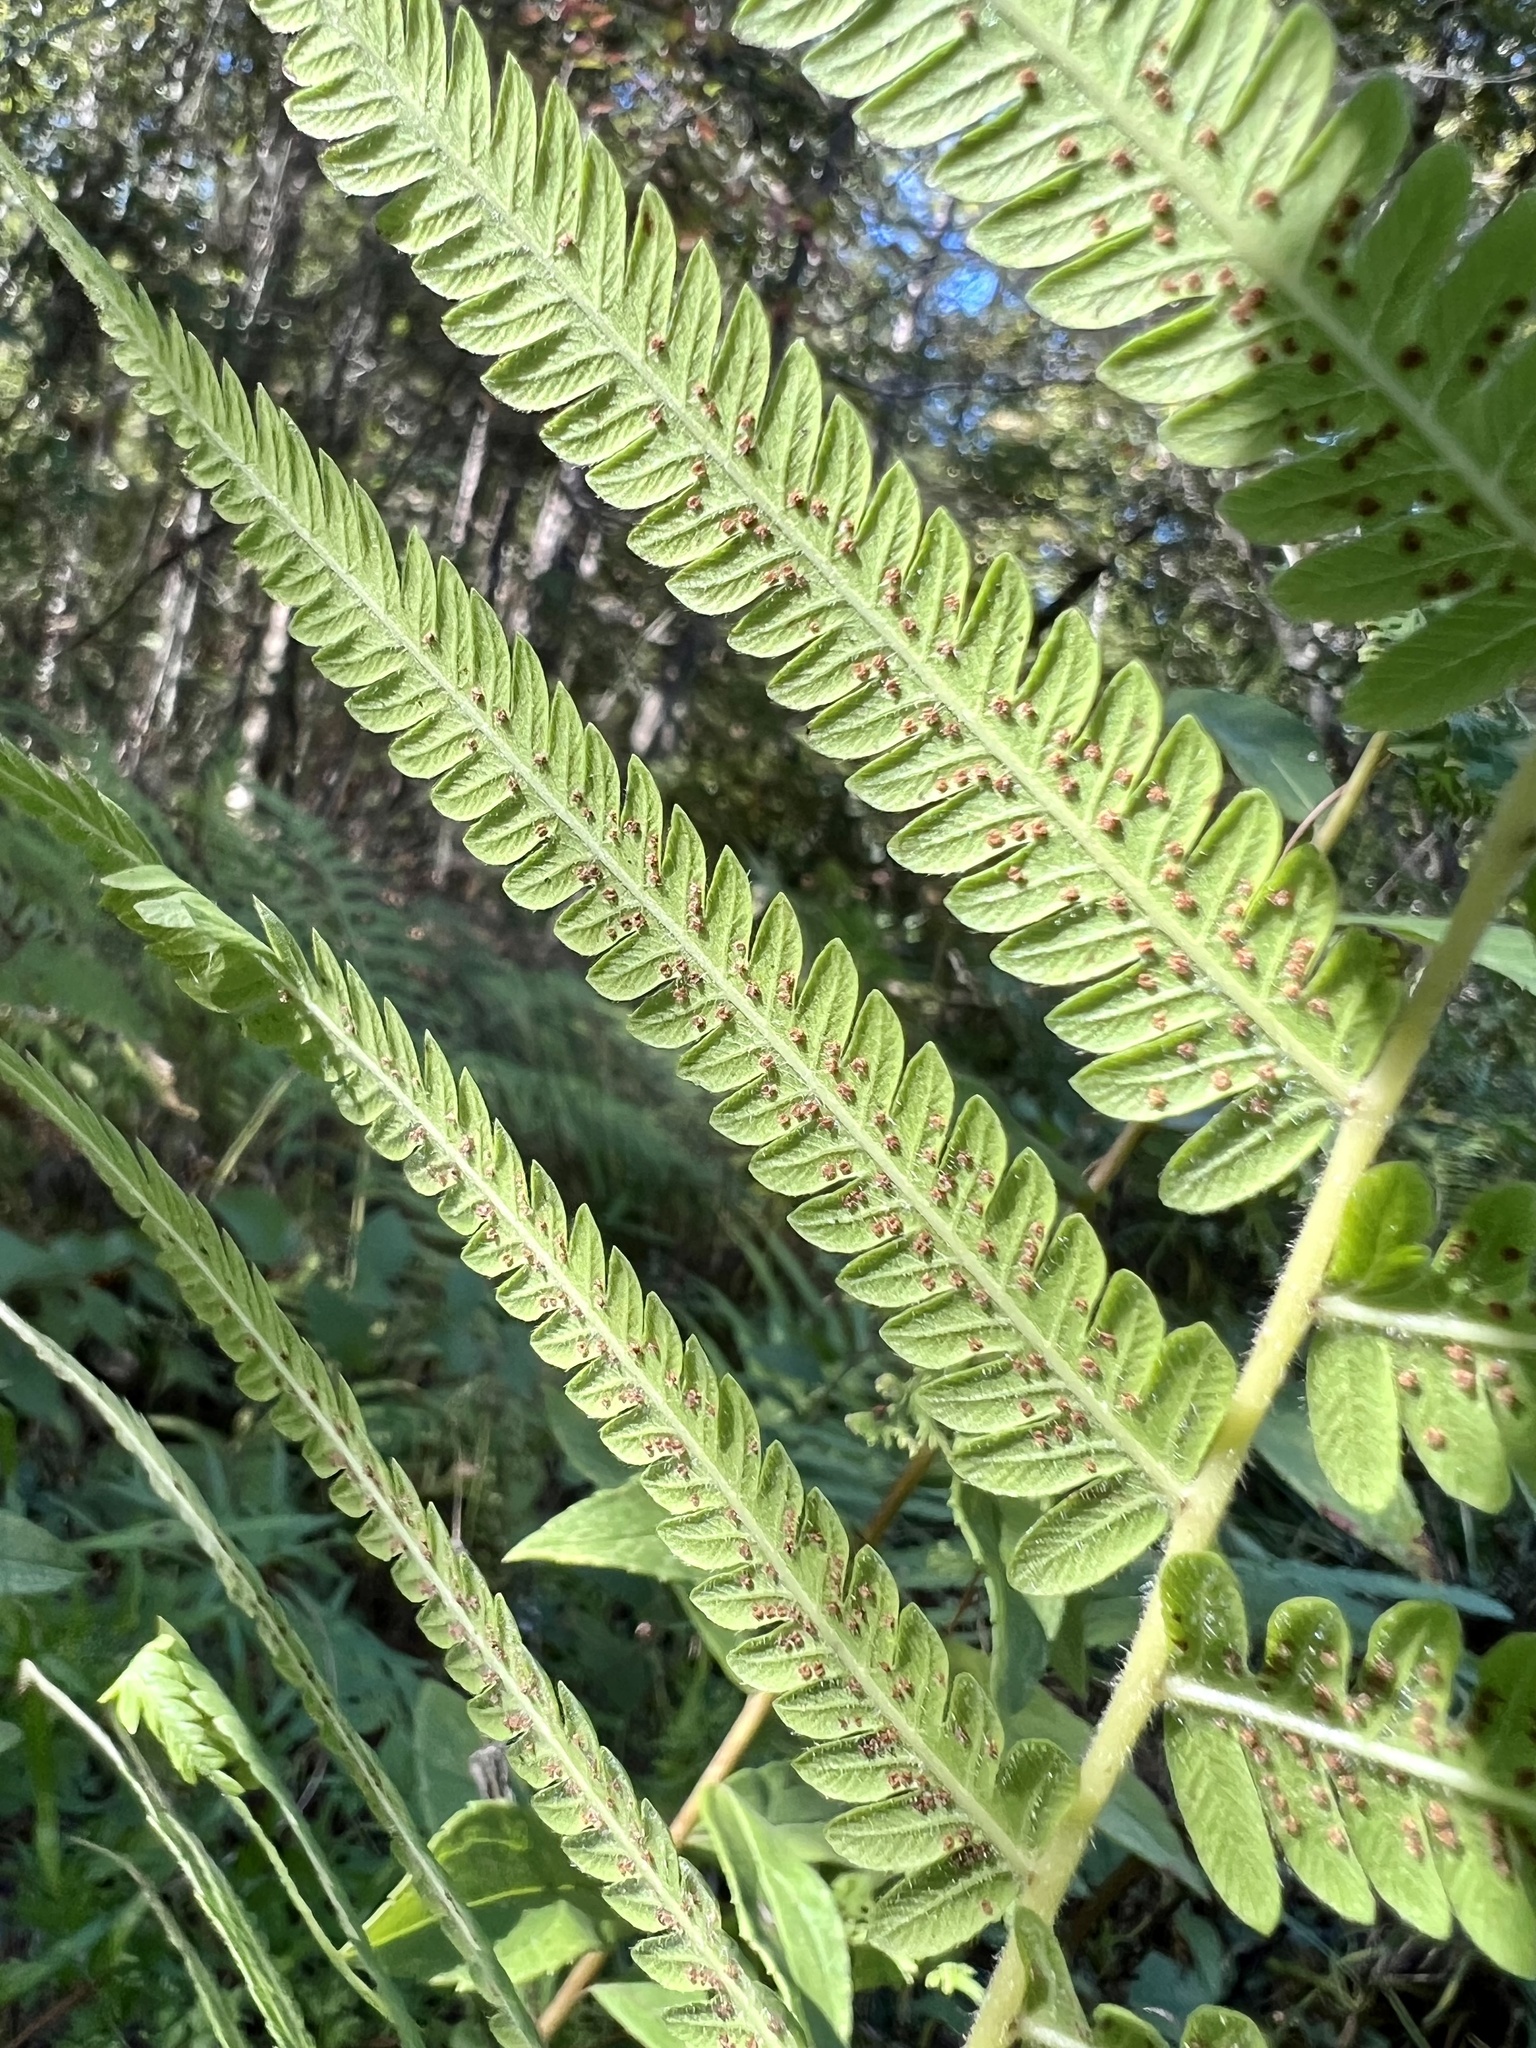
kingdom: Plantae
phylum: Tracheophyta
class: Polypodiopsida
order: Polypodiales
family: Thelypteridaceae
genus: Pelazoneuron
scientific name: Pelazoneuron kunthii
